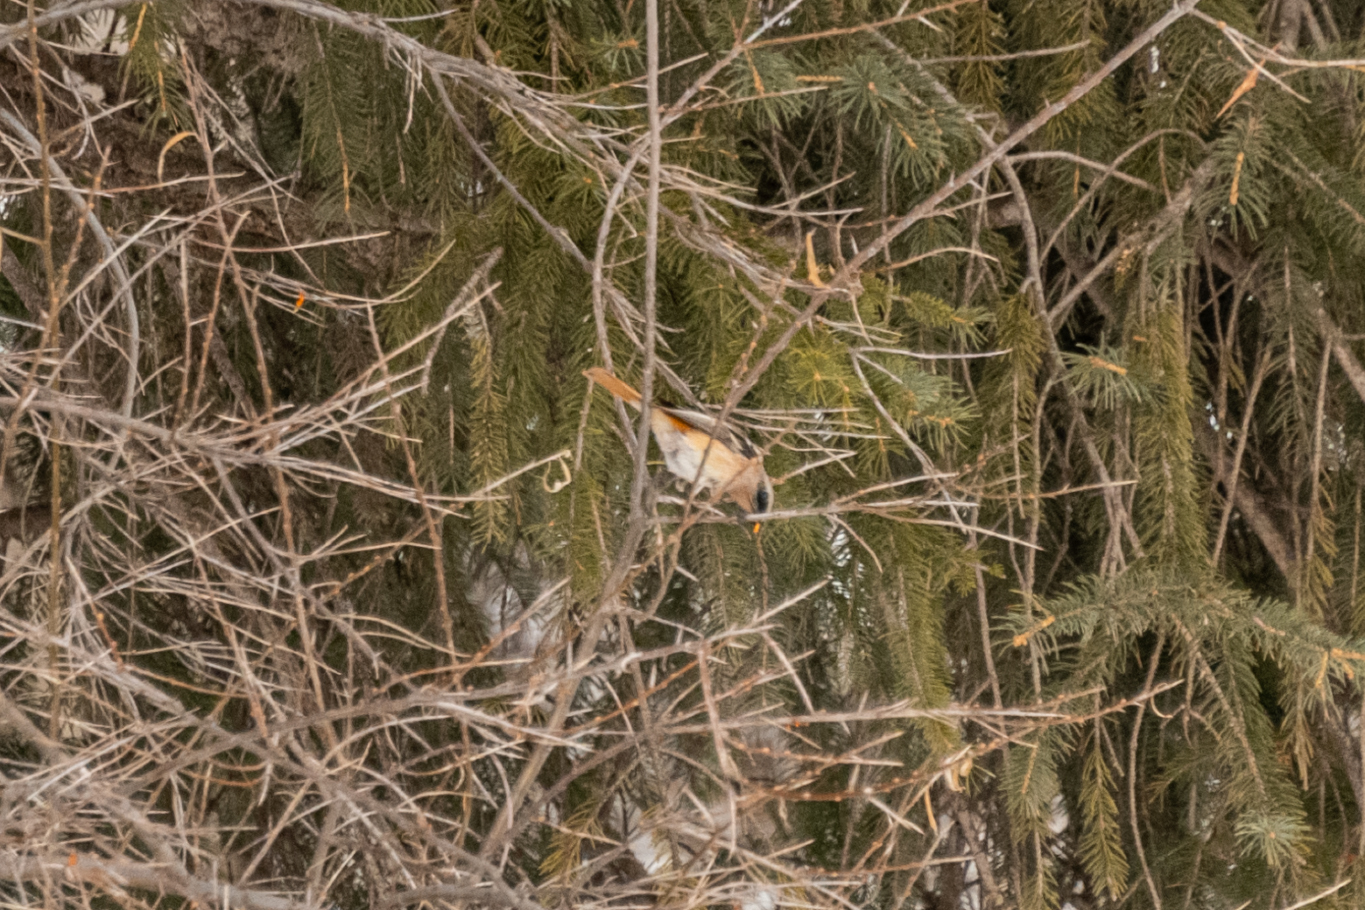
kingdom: Animalia
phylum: Chordata
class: Aves
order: Passeriformes
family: Muscicapidae
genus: Phoenicurus
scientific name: Phoenicurus erythronotus
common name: Eversmann's redstart
